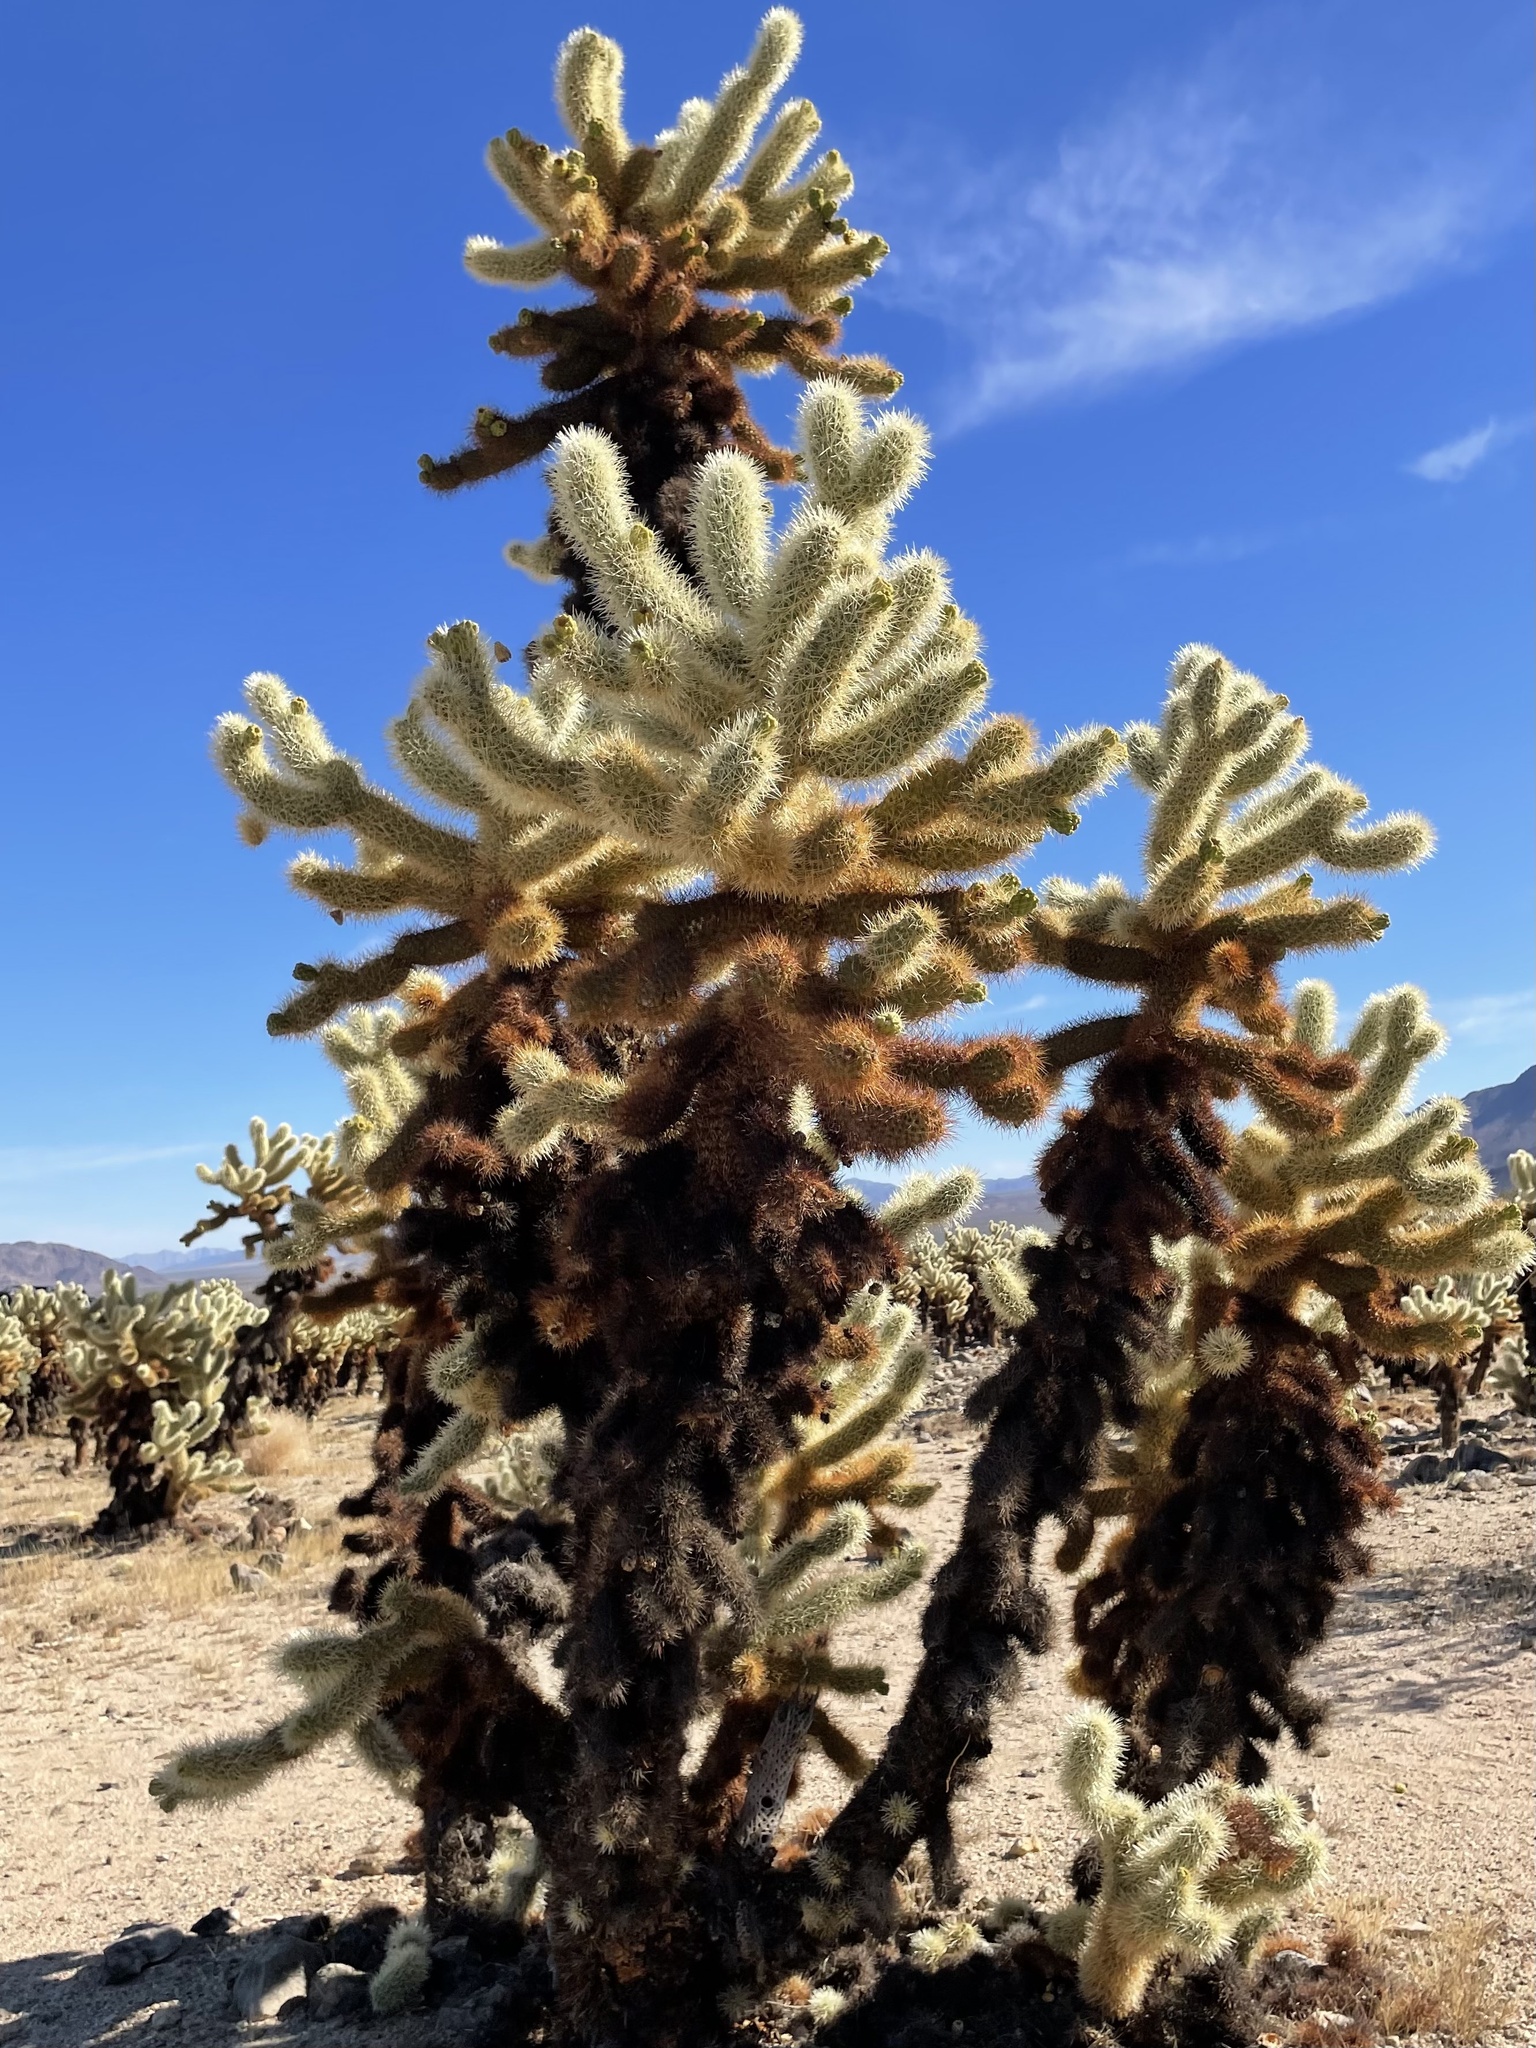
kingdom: Plantae
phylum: Tracheophyta
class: Magnoliopsida
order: Caryophyllales
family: Cactaceae
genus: Cylindropuntia
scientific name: Cylindropuntia fosbergii
